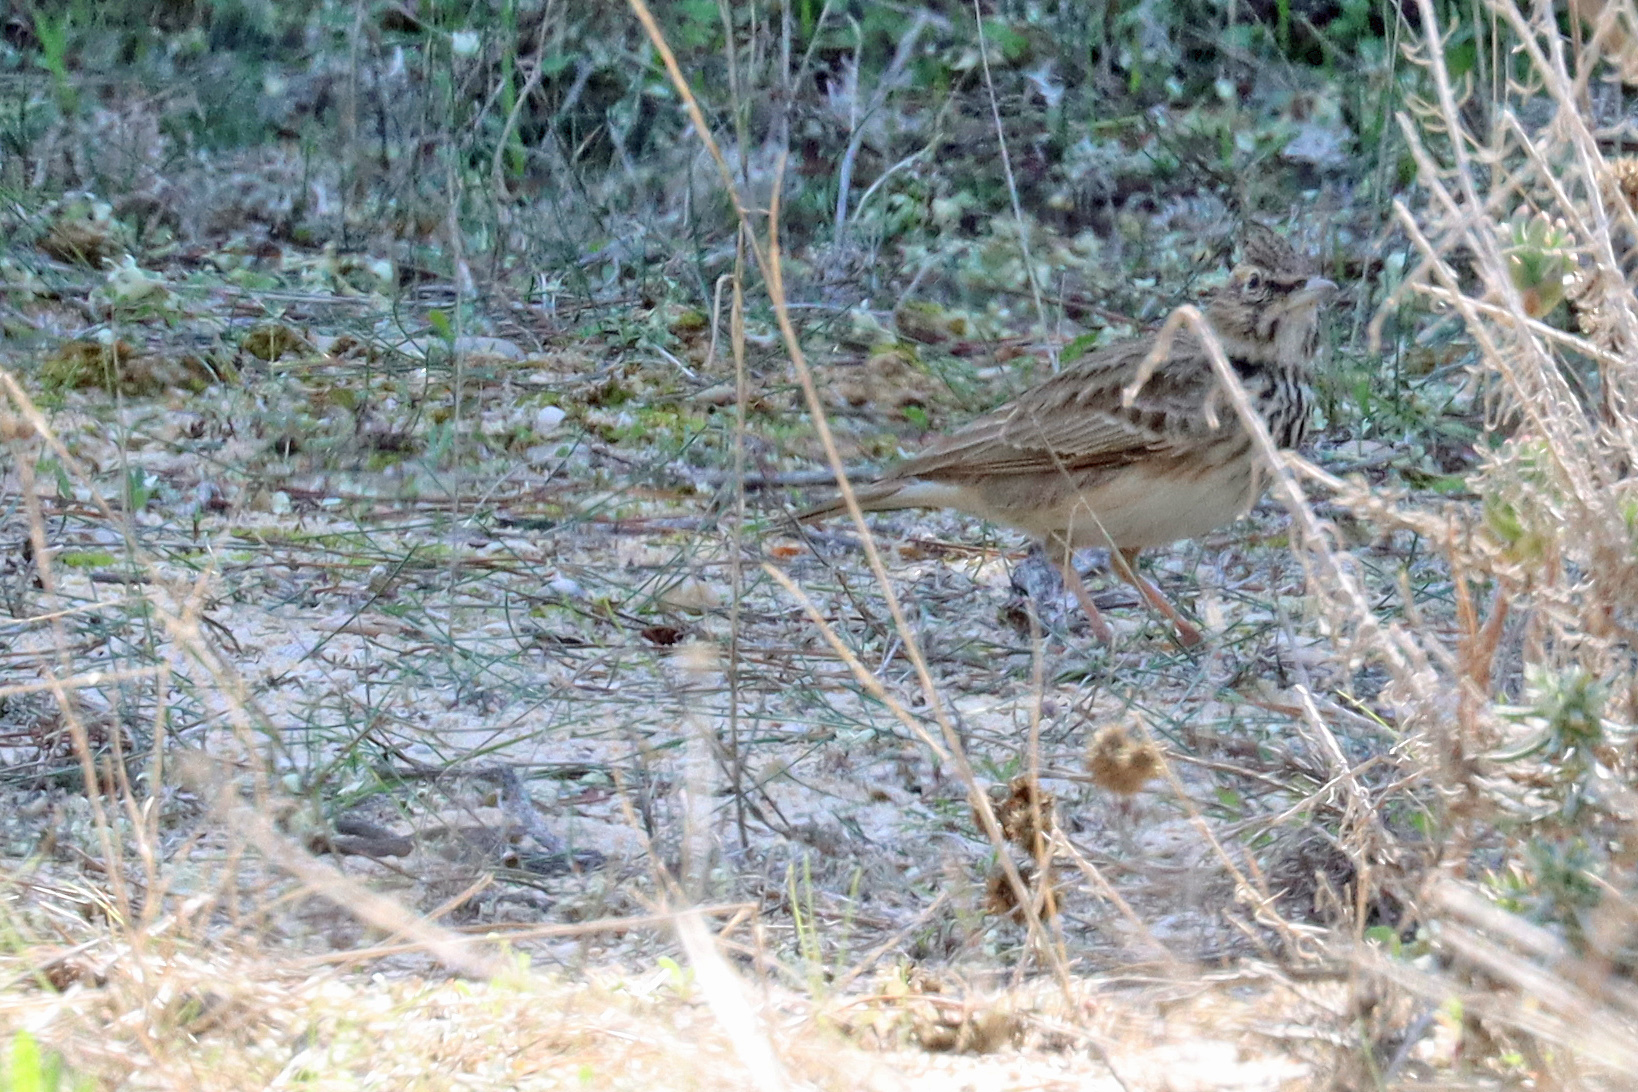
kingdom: Animalia
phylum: Chordata
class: Aves
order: Passeriformes
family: Alaudidae
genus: Galerida
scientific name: Galerida cristata
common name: Crested lark
